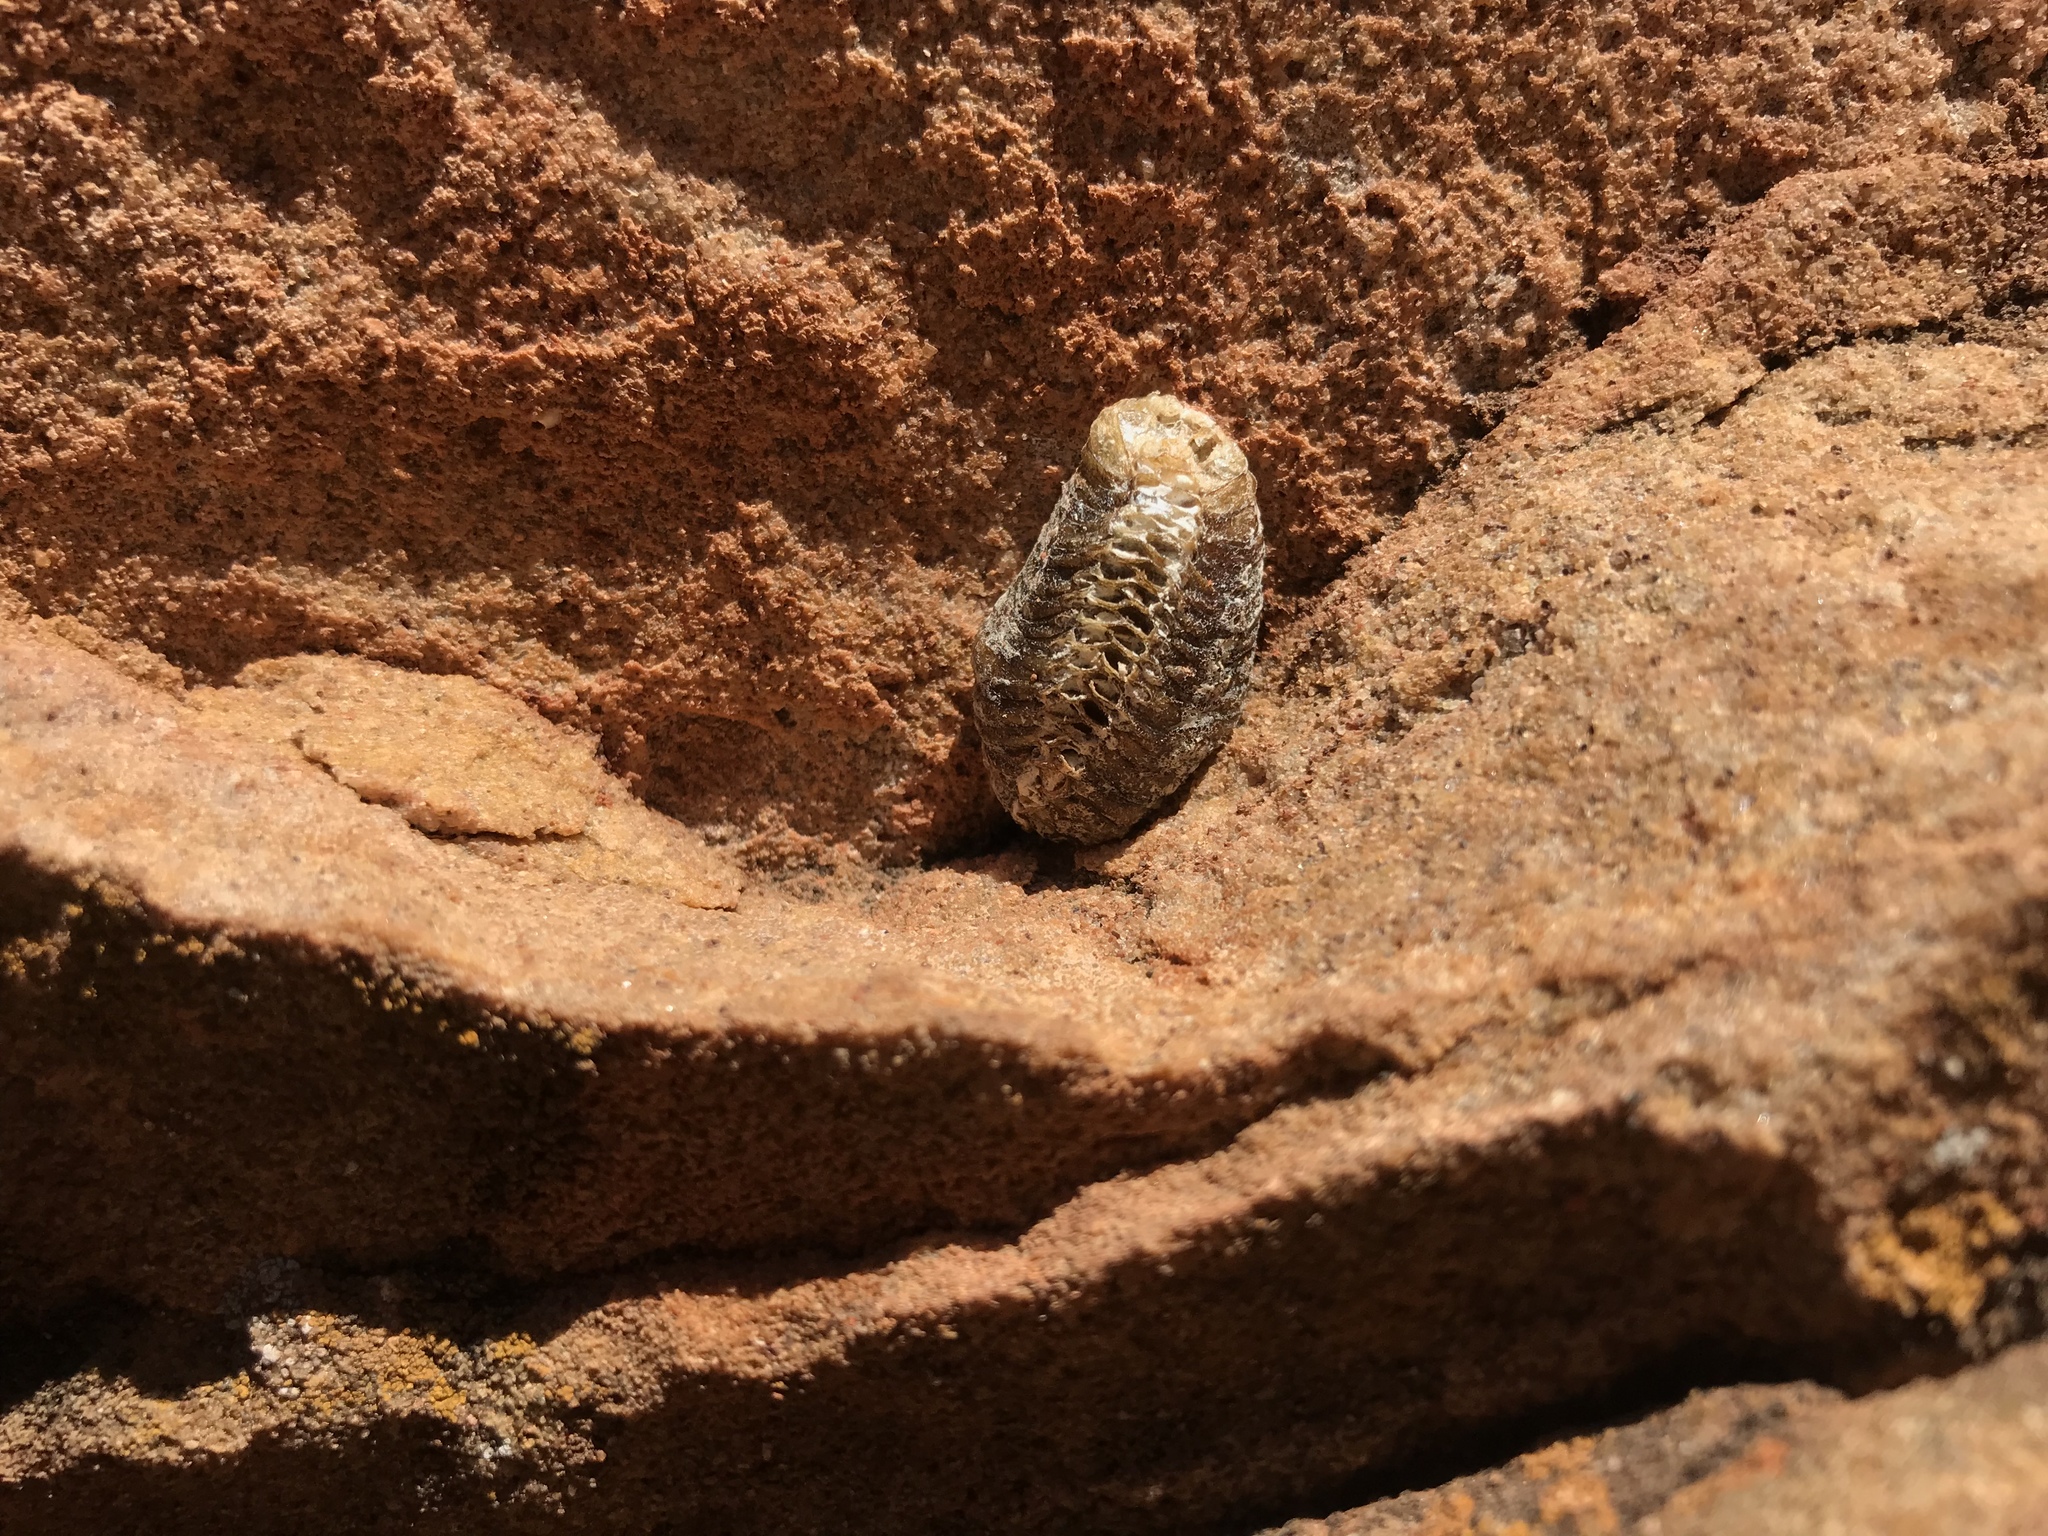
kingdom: Animalia
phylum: Arthropoda
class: Insecta
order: Mantodea
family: Mantidae
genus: Stagmomantis
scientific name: Stagmomantis limbata
